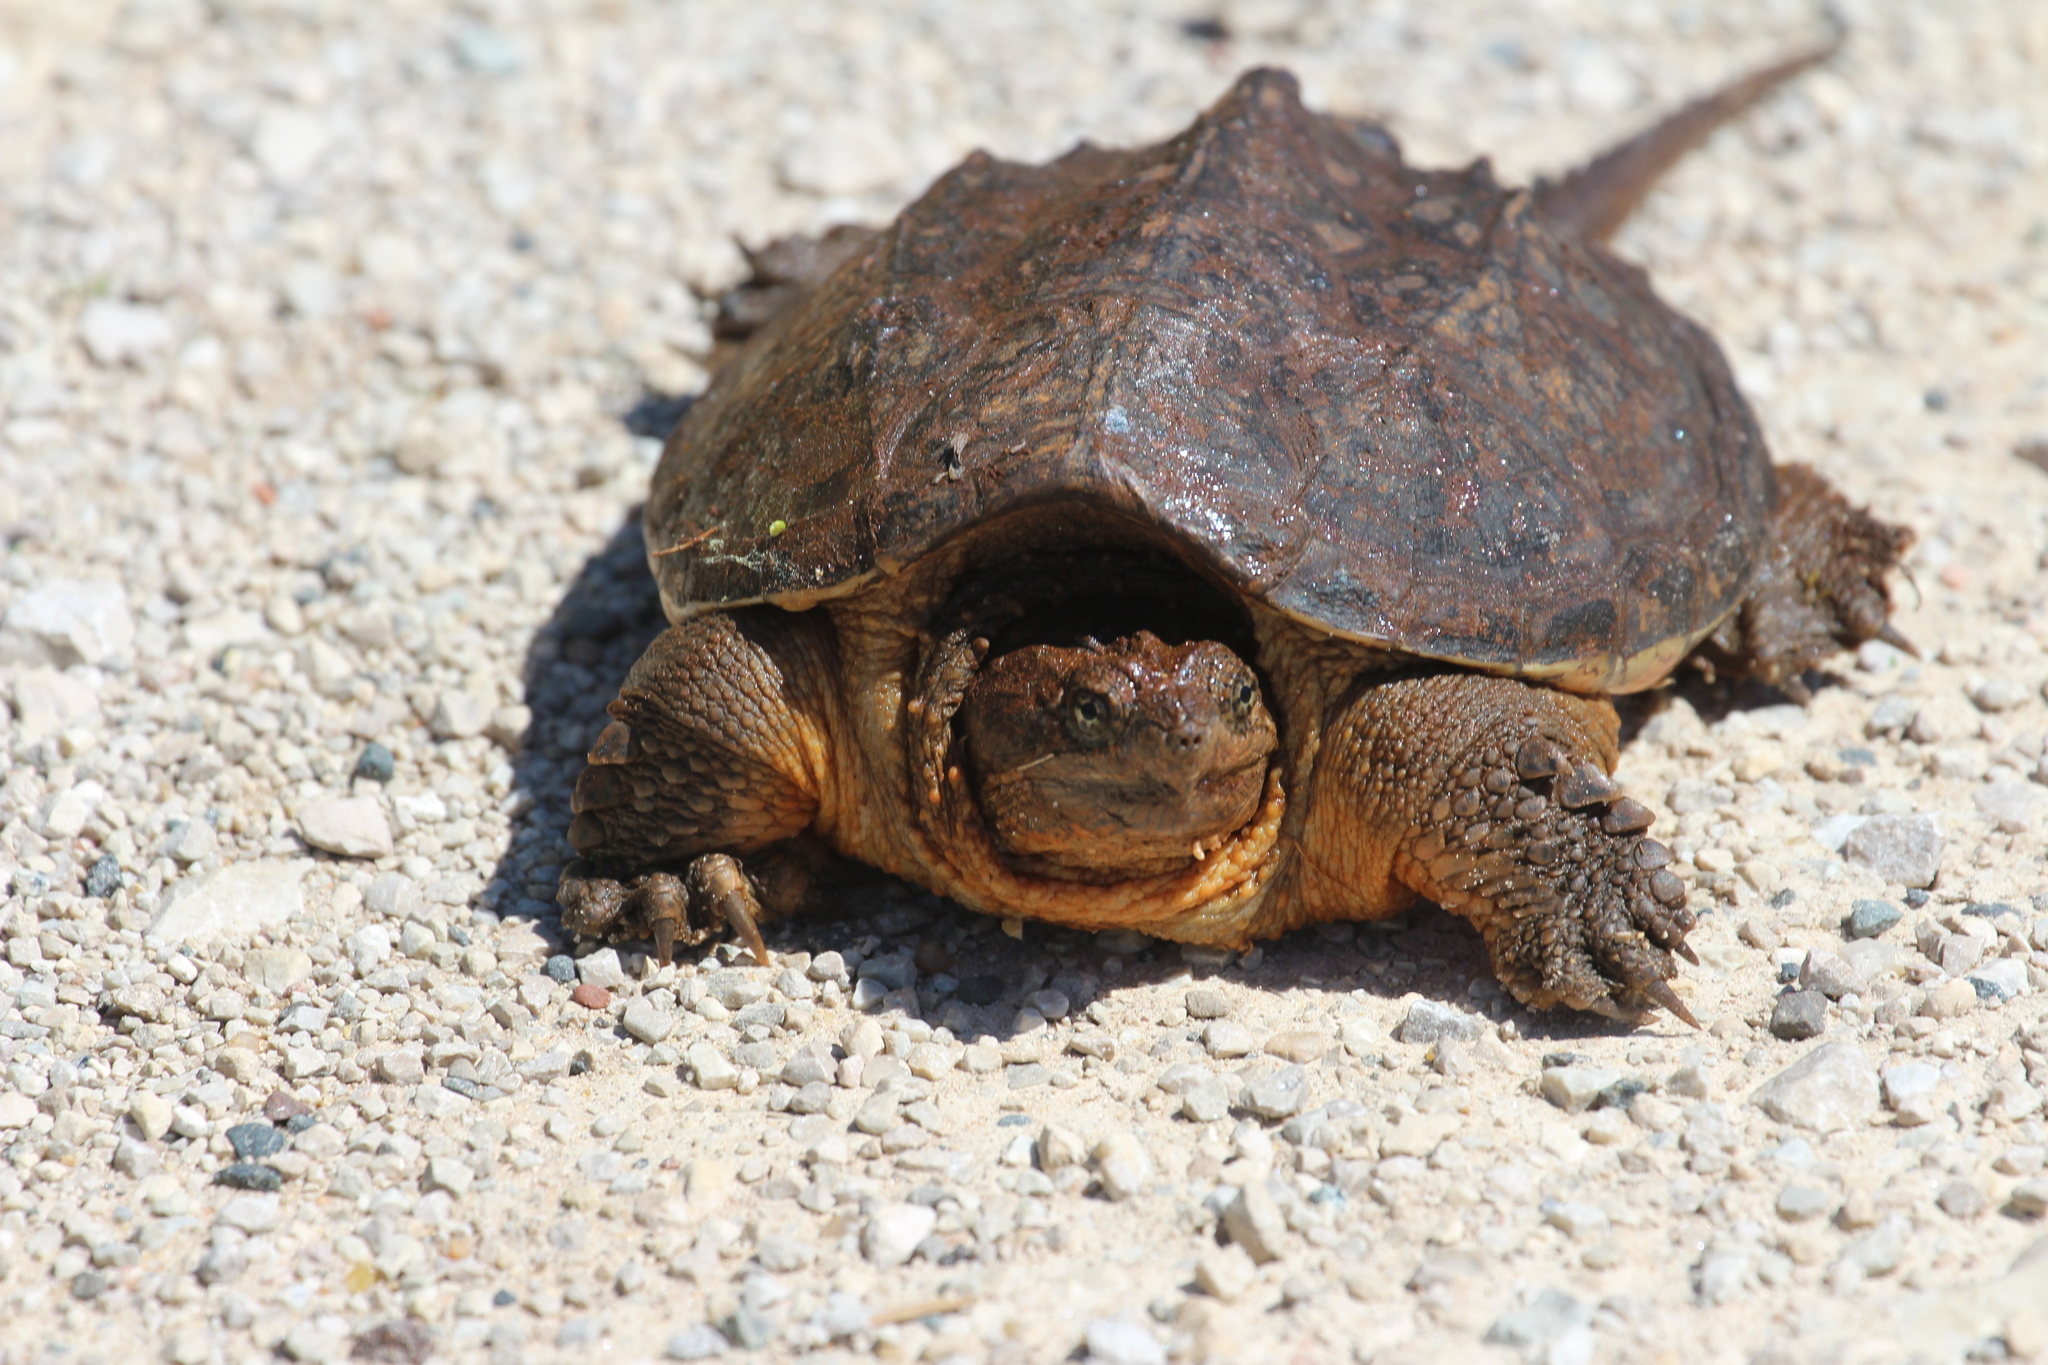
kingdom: Animalia
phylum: Chordata
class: Testudines
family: Chelydridae
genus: Chelydra
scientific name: Chelydra serpentina
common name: Common snapping turtle
